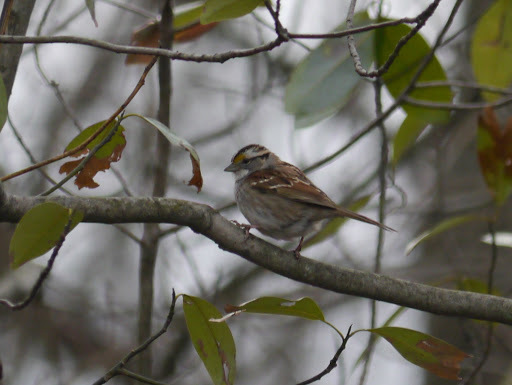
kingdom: Animalia
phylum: Chordata
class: Aves
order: Passeriformes
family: Passerellidae
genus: Zonotrichia
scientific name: Zonotrichia albicollis
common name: White-throated sparrow
